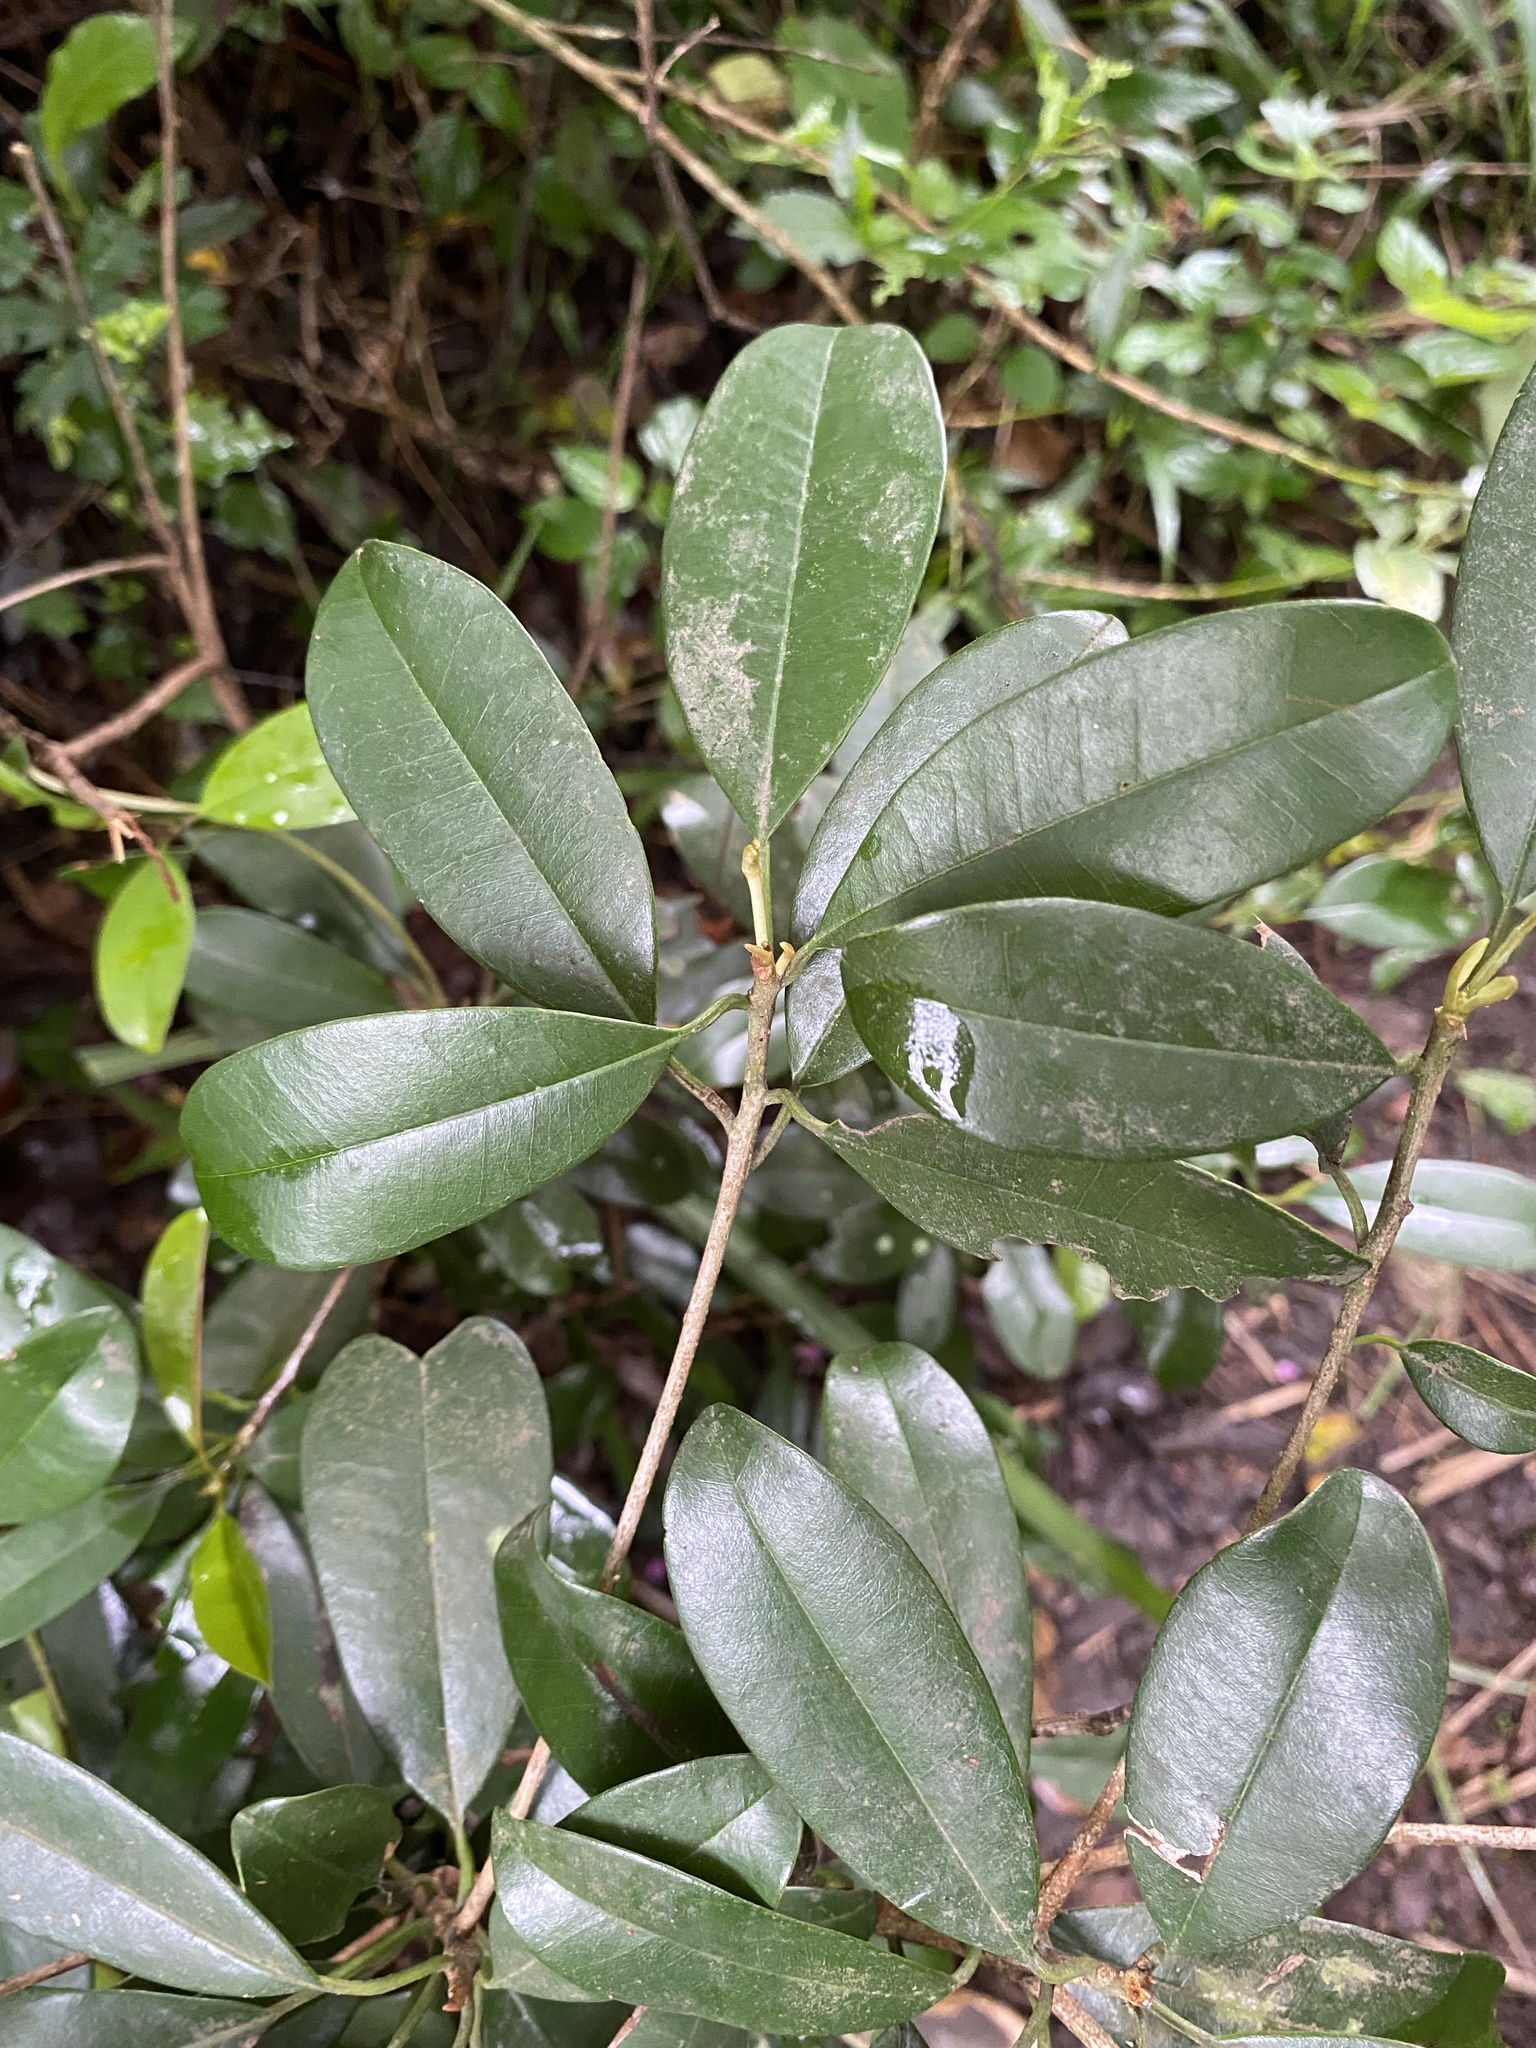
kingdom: Plantae
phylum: Tracheophyta
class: Magnoliopsida
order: Ericales
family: Sapotaceae
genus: Englerophytum
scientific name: Englerophytum natalense
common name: Silver-leaved milkplum
